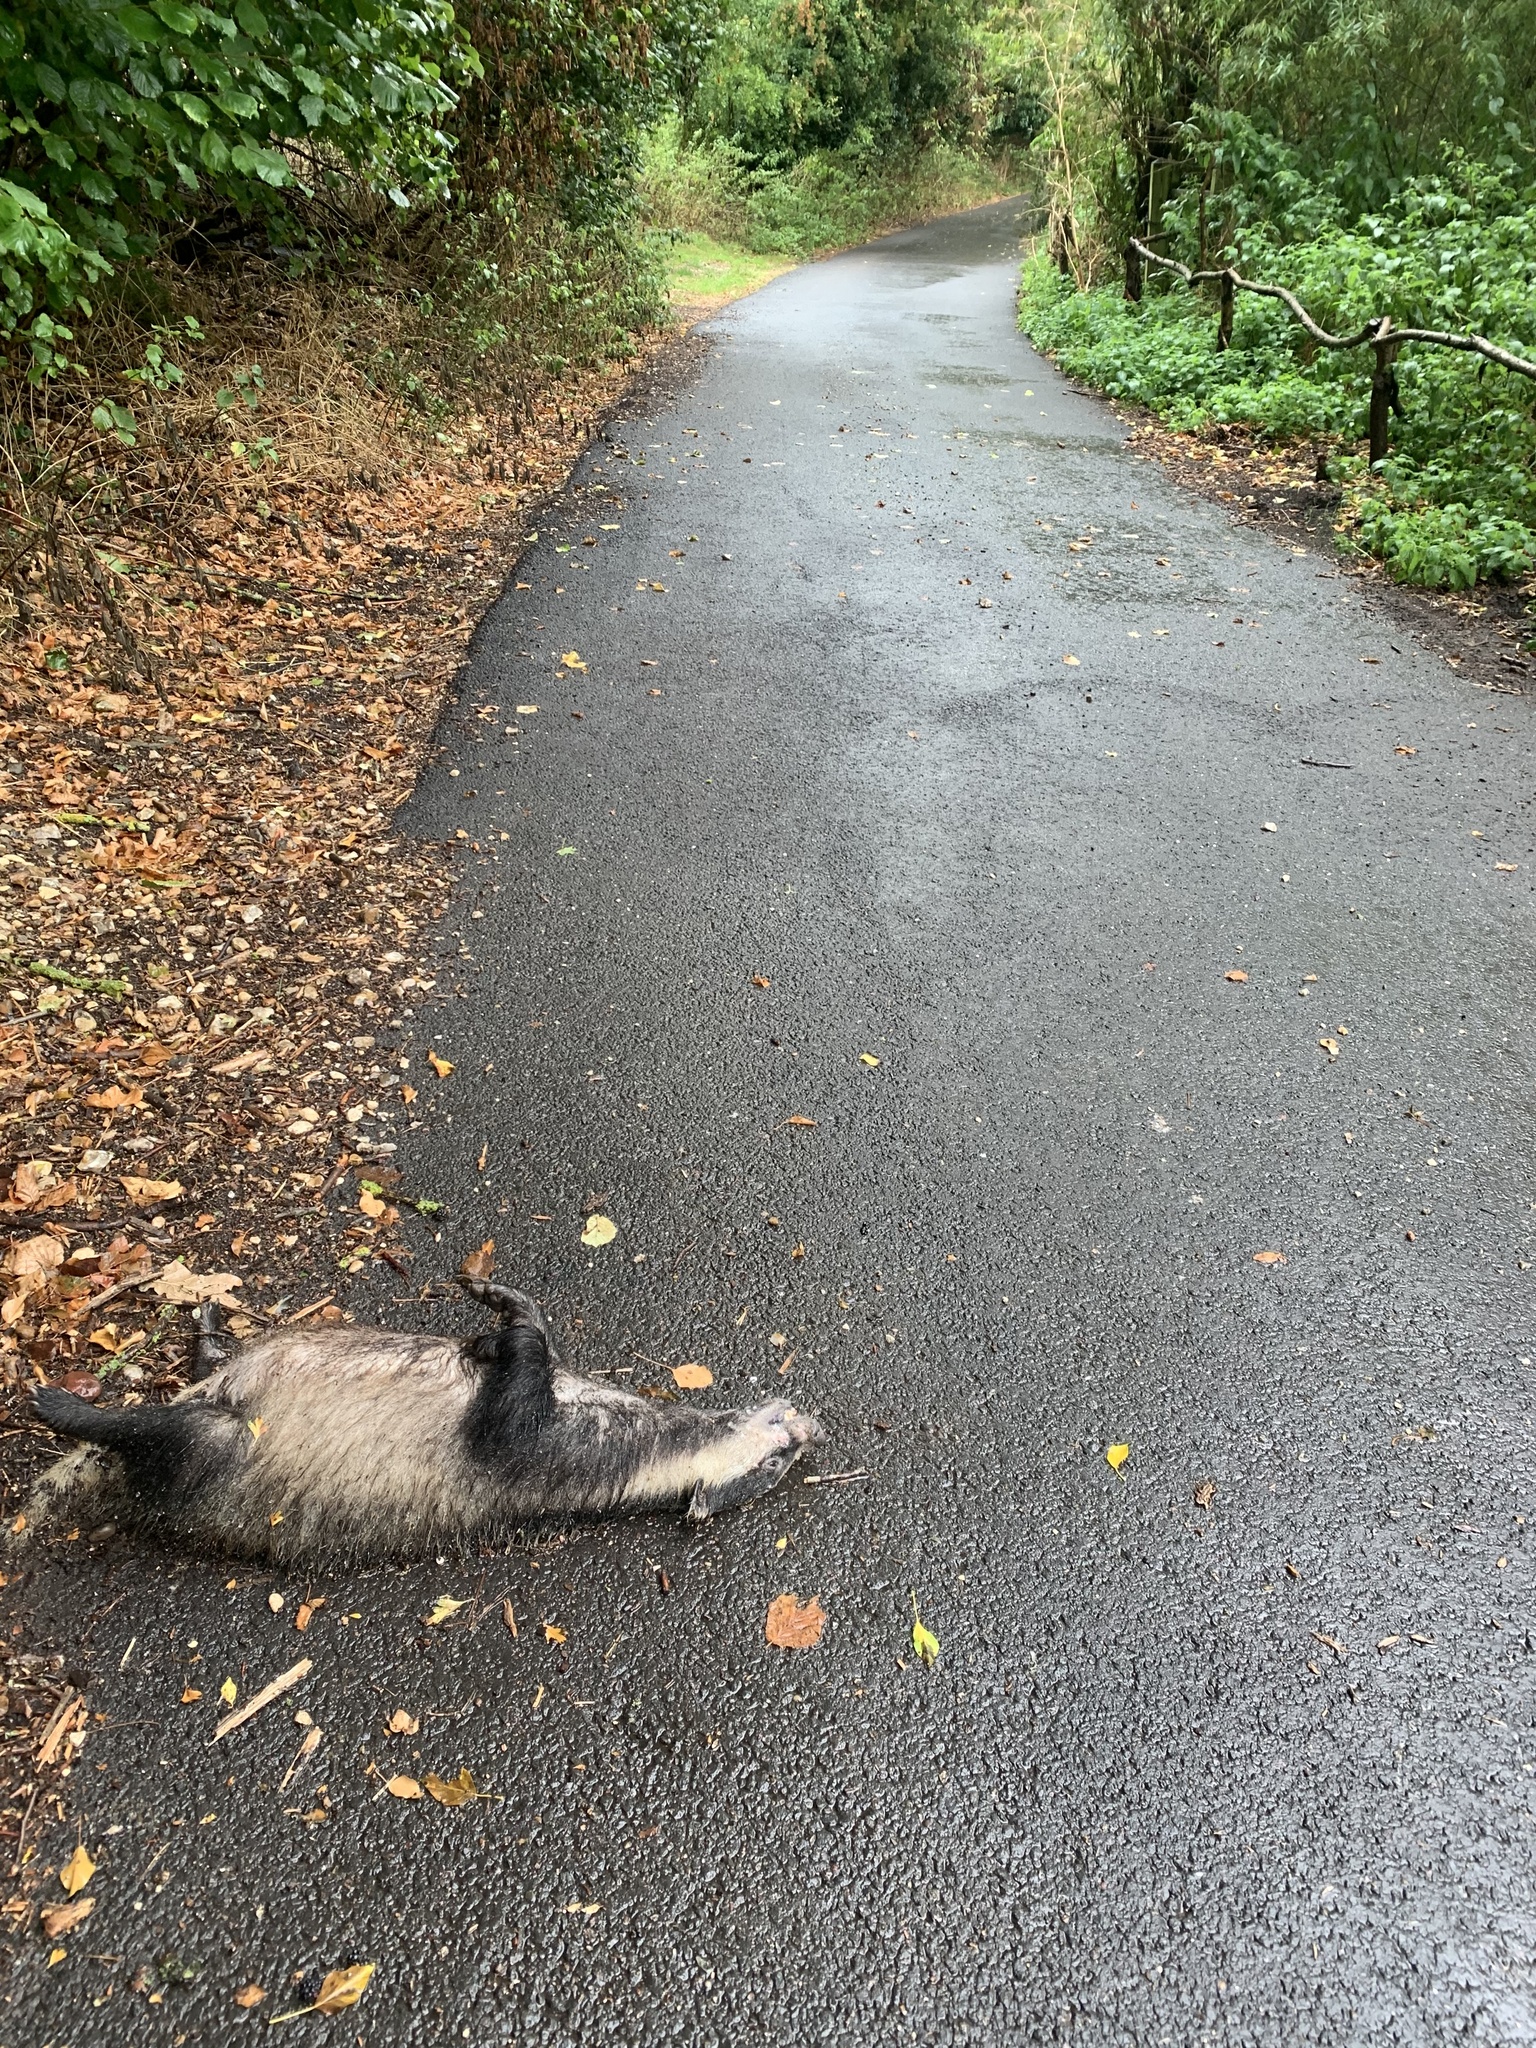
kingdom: Animalia
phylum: Chordata
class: Mammalia
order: Carnivora
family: Mustelidae
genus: Meles
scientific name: Meles meles
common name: Eurasian badger
